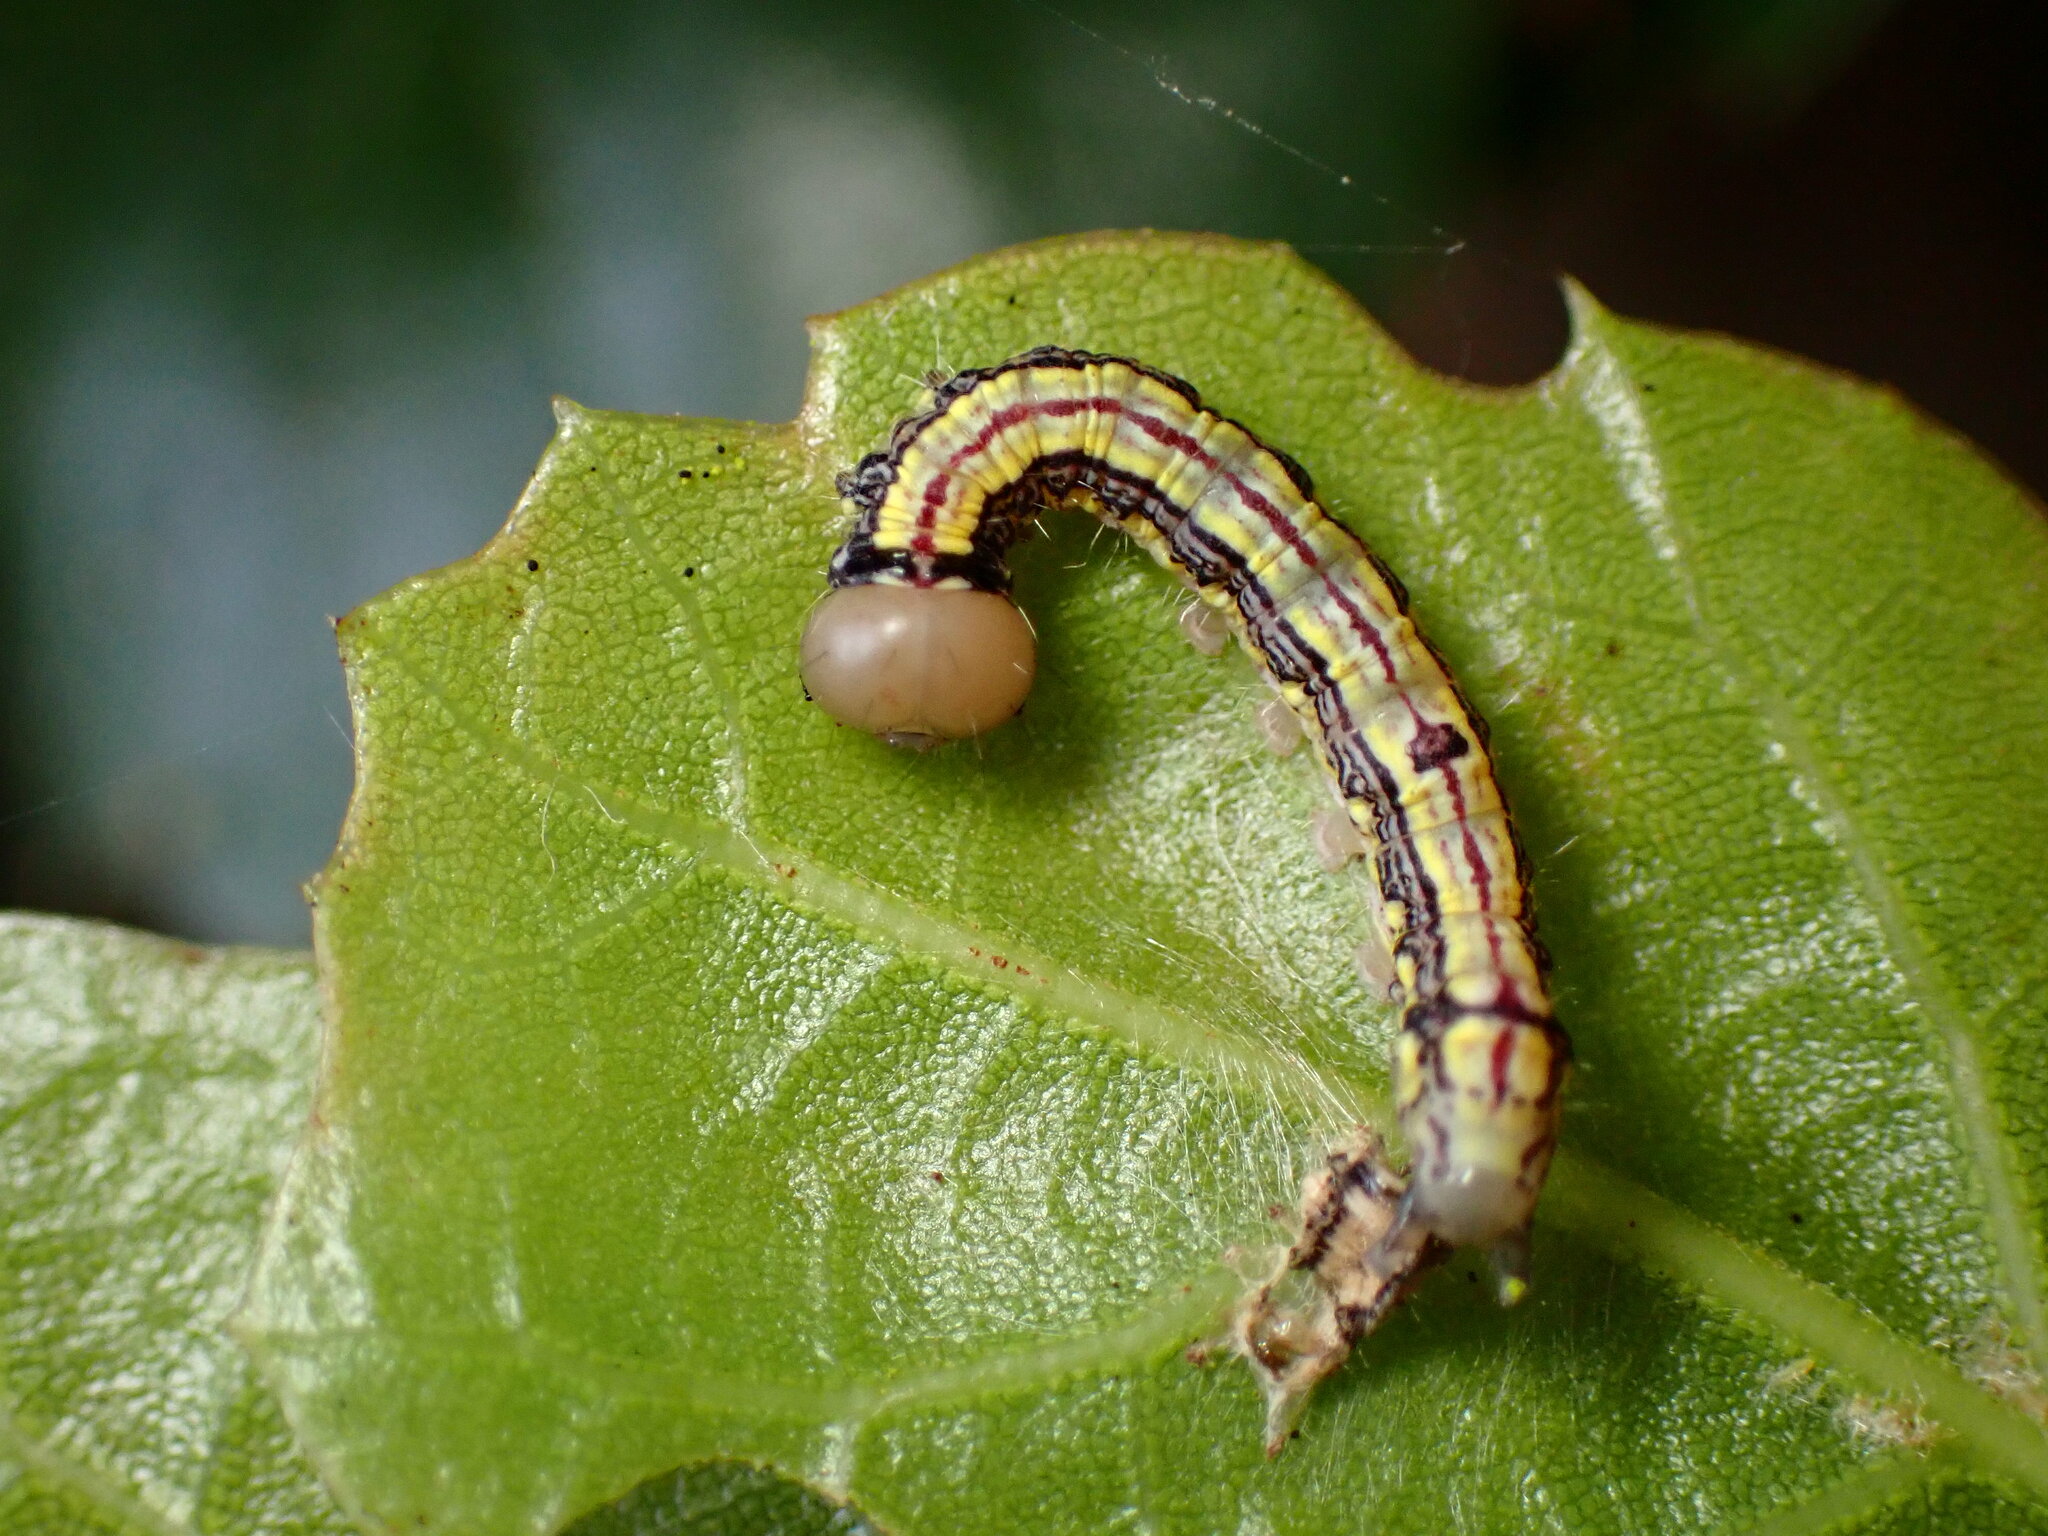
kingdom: Animalia
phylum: Arthropoda
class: Insecta
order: Lepidoptera
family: Notodontidae
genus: Phryganidia
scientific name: Phryganidia californica
